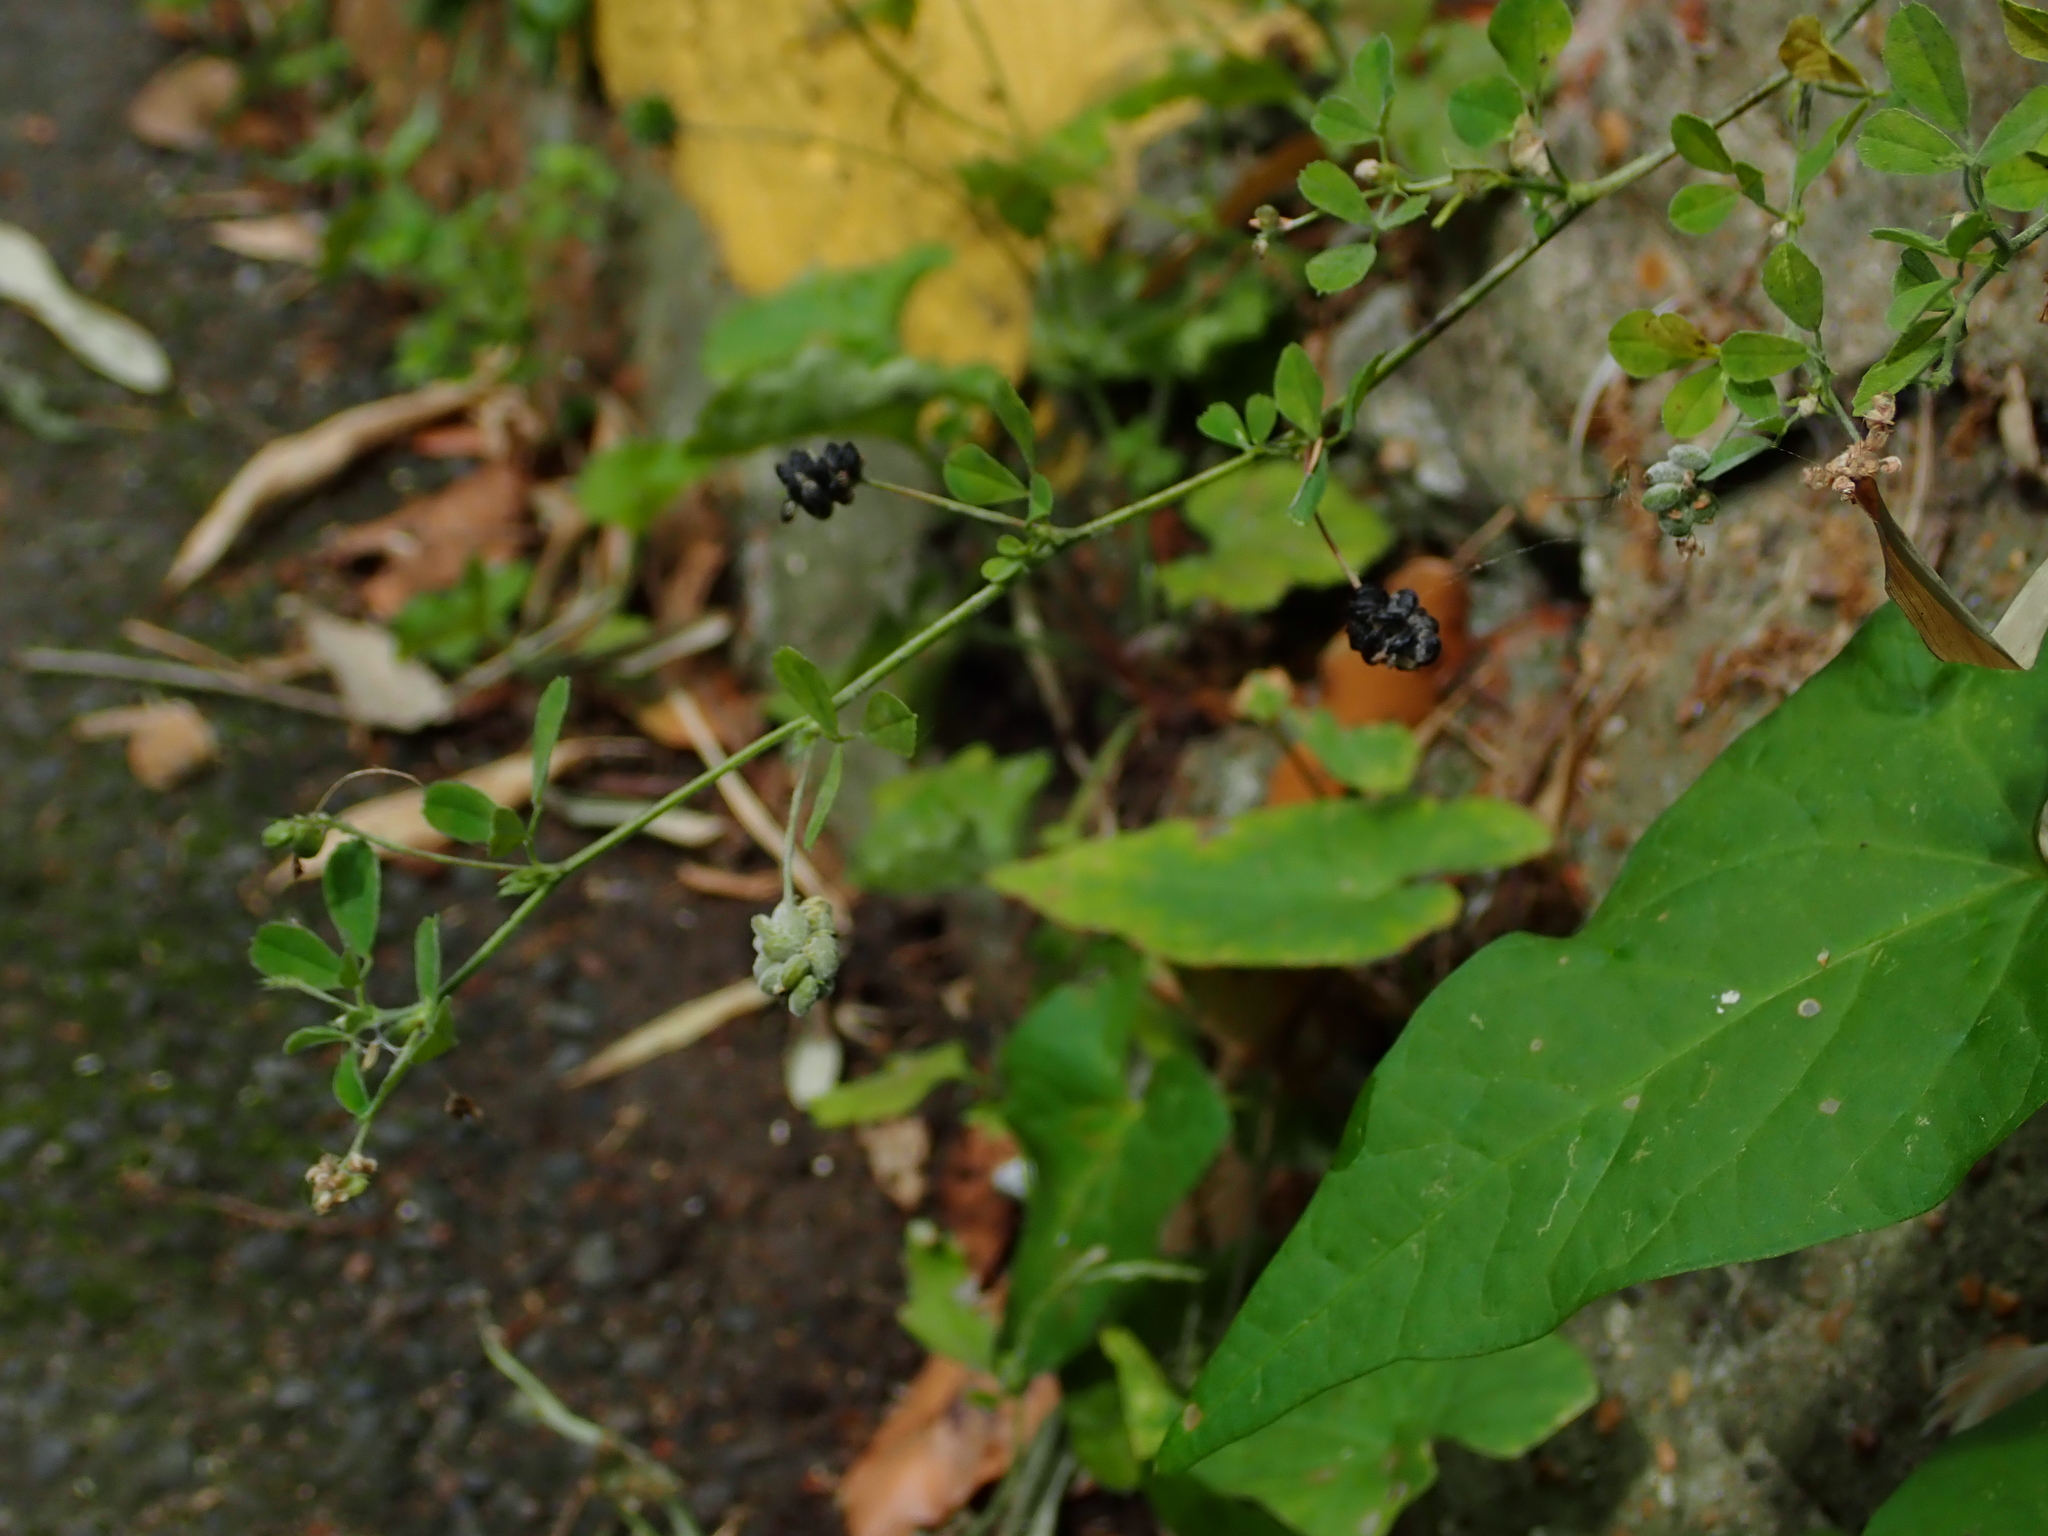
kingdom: Plantae
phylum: Tracheophyta
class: Magnoliopsida
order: Fabales
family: Fabaceae
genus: Medicago
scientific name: Medicago lupulina
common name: Black medick
